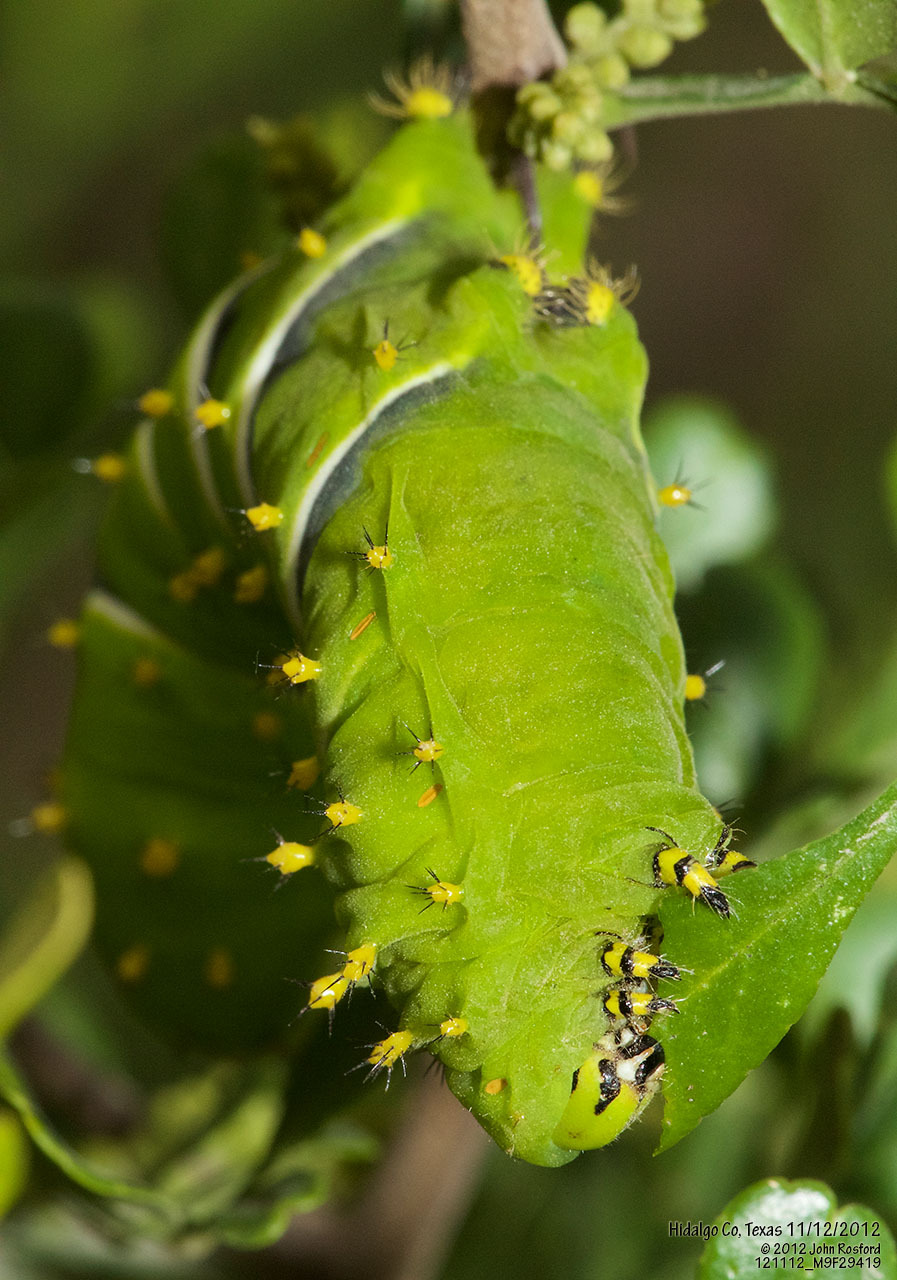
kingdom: Animalia
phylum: Arthropoda
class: Insecta
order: Lepidoptera
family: Saturniidae
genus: Rothschildia
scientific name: Rothschildia lebeau
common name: Lebeau's rothschildia
